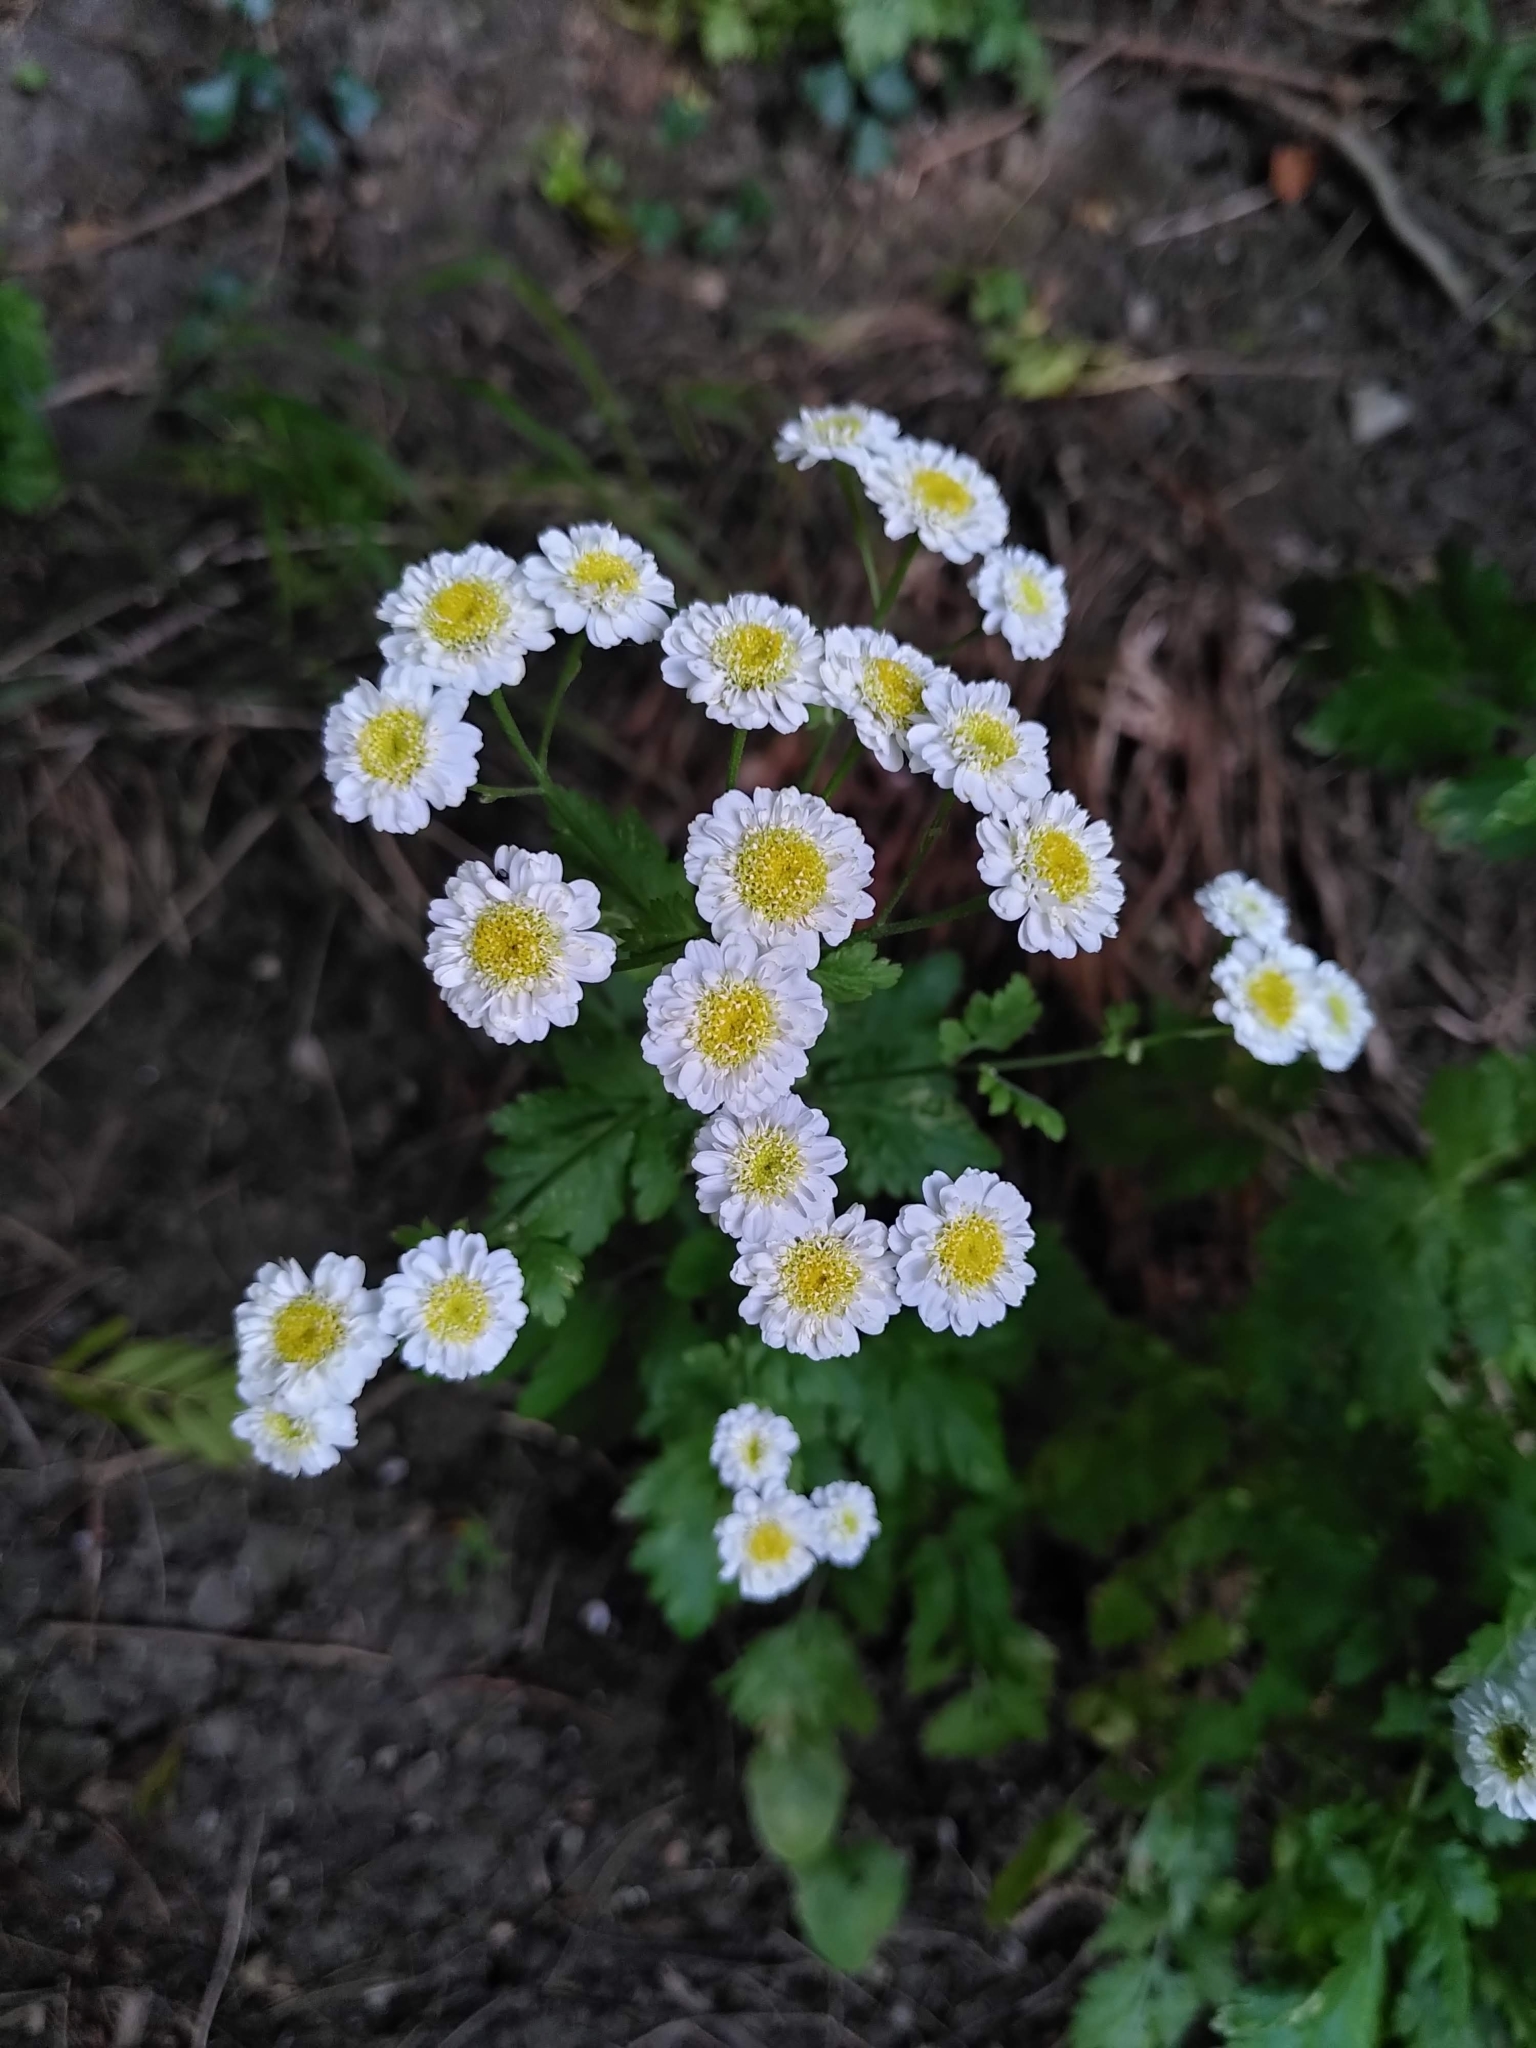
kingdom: Plantae
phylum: Tracheophyta
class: Magnoliopsida
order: Asterales
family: Asteraceae
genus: Tanacetum
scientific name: Tanacetum parthenium
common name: Feverfew
